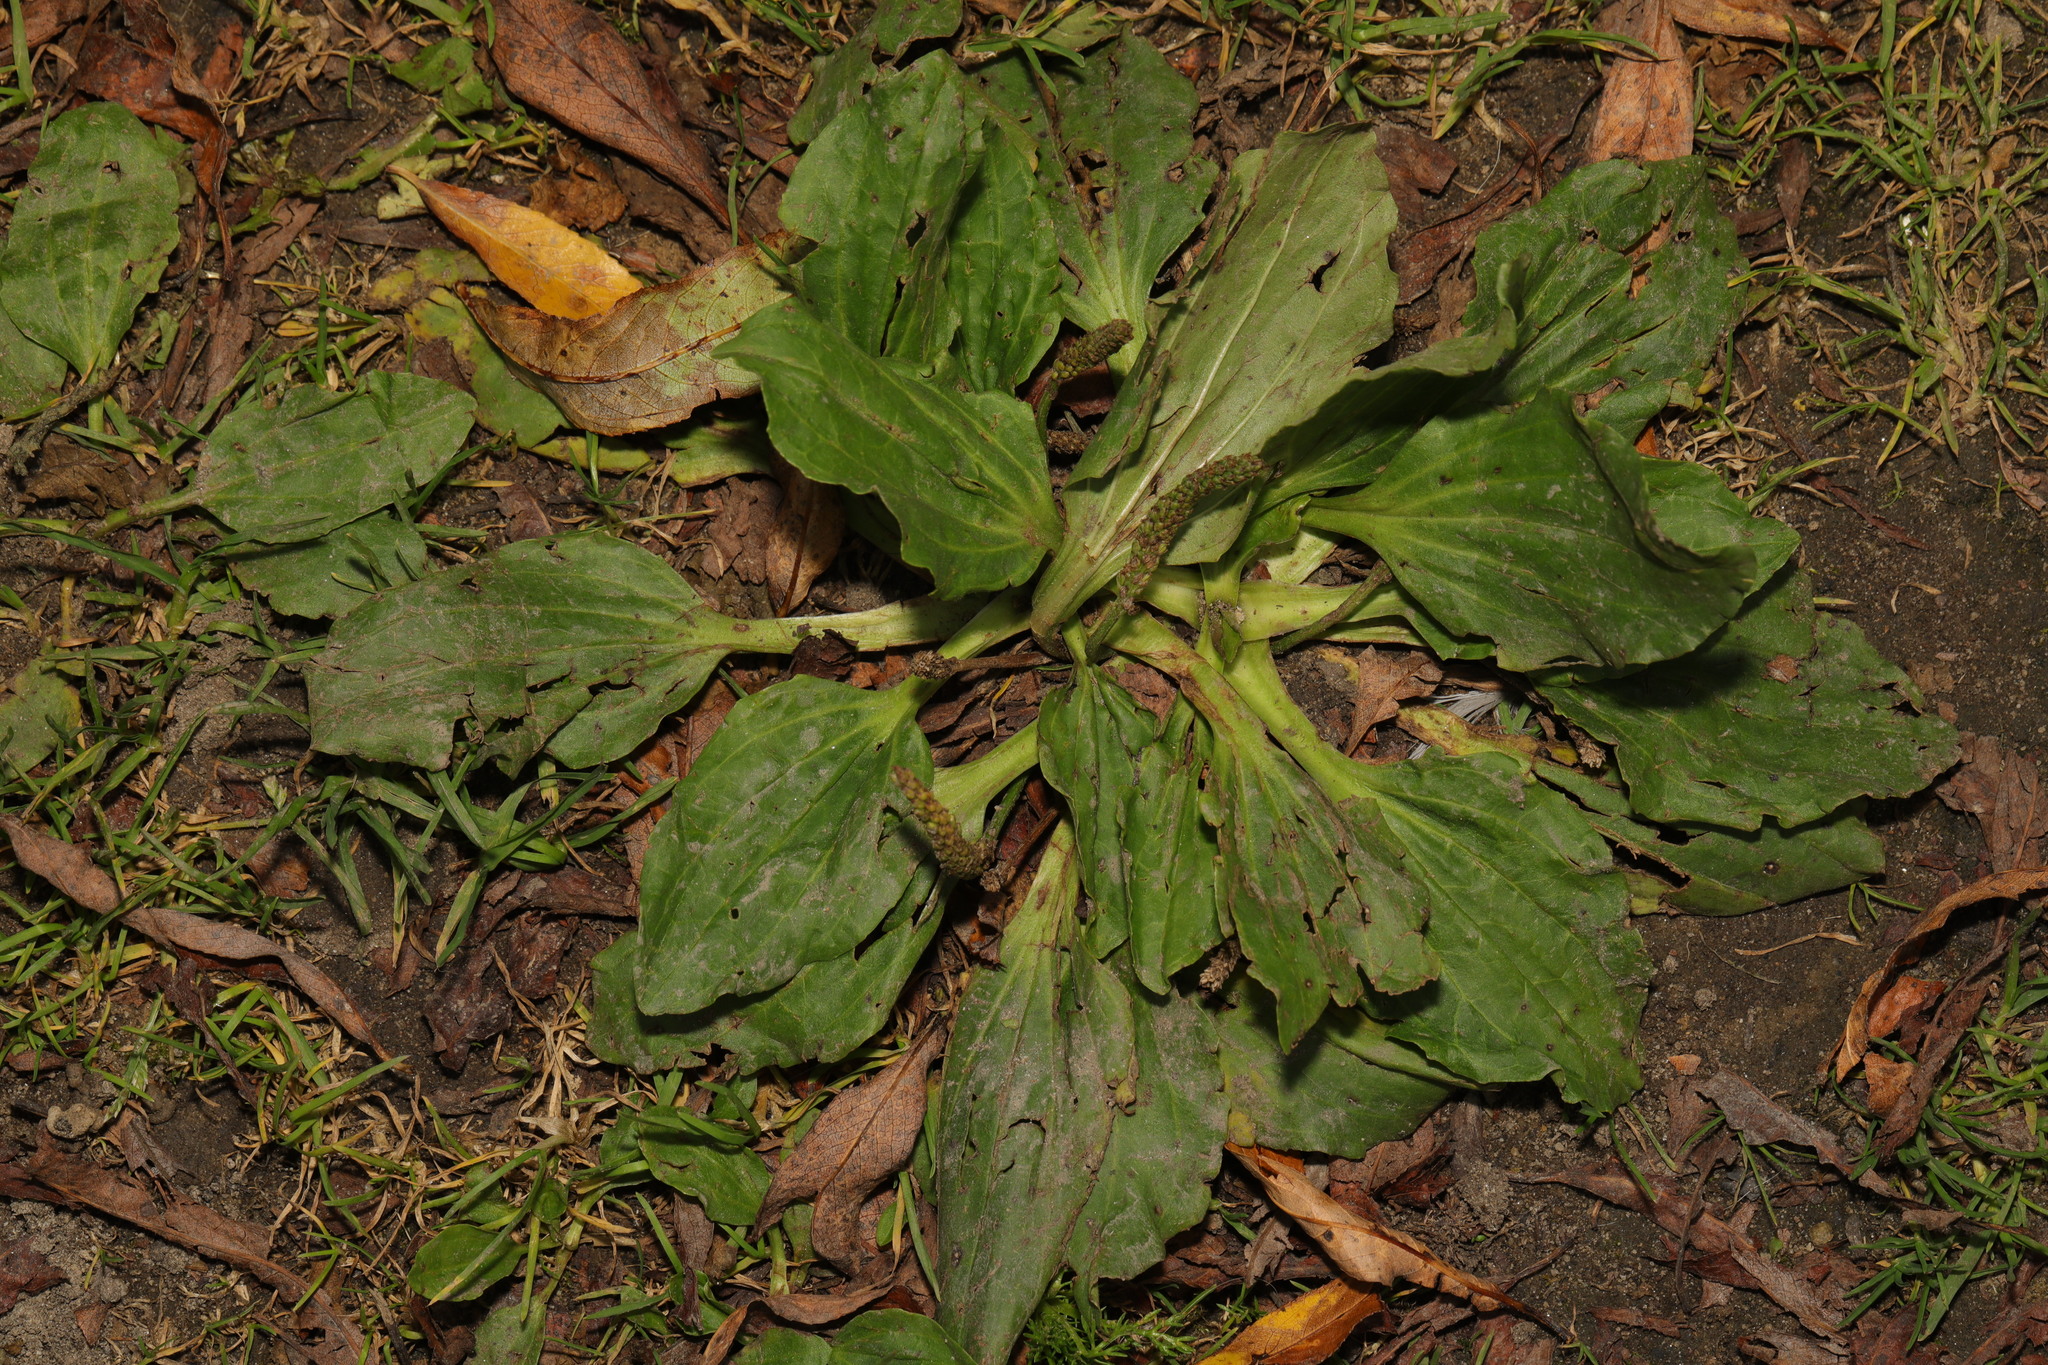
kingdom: Plantae
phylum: Tracheophyta
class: Magnoliopsida
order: Lamiales
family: Plantaginaceae
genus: Plantago
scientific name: Plantago major
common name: Common plantain
